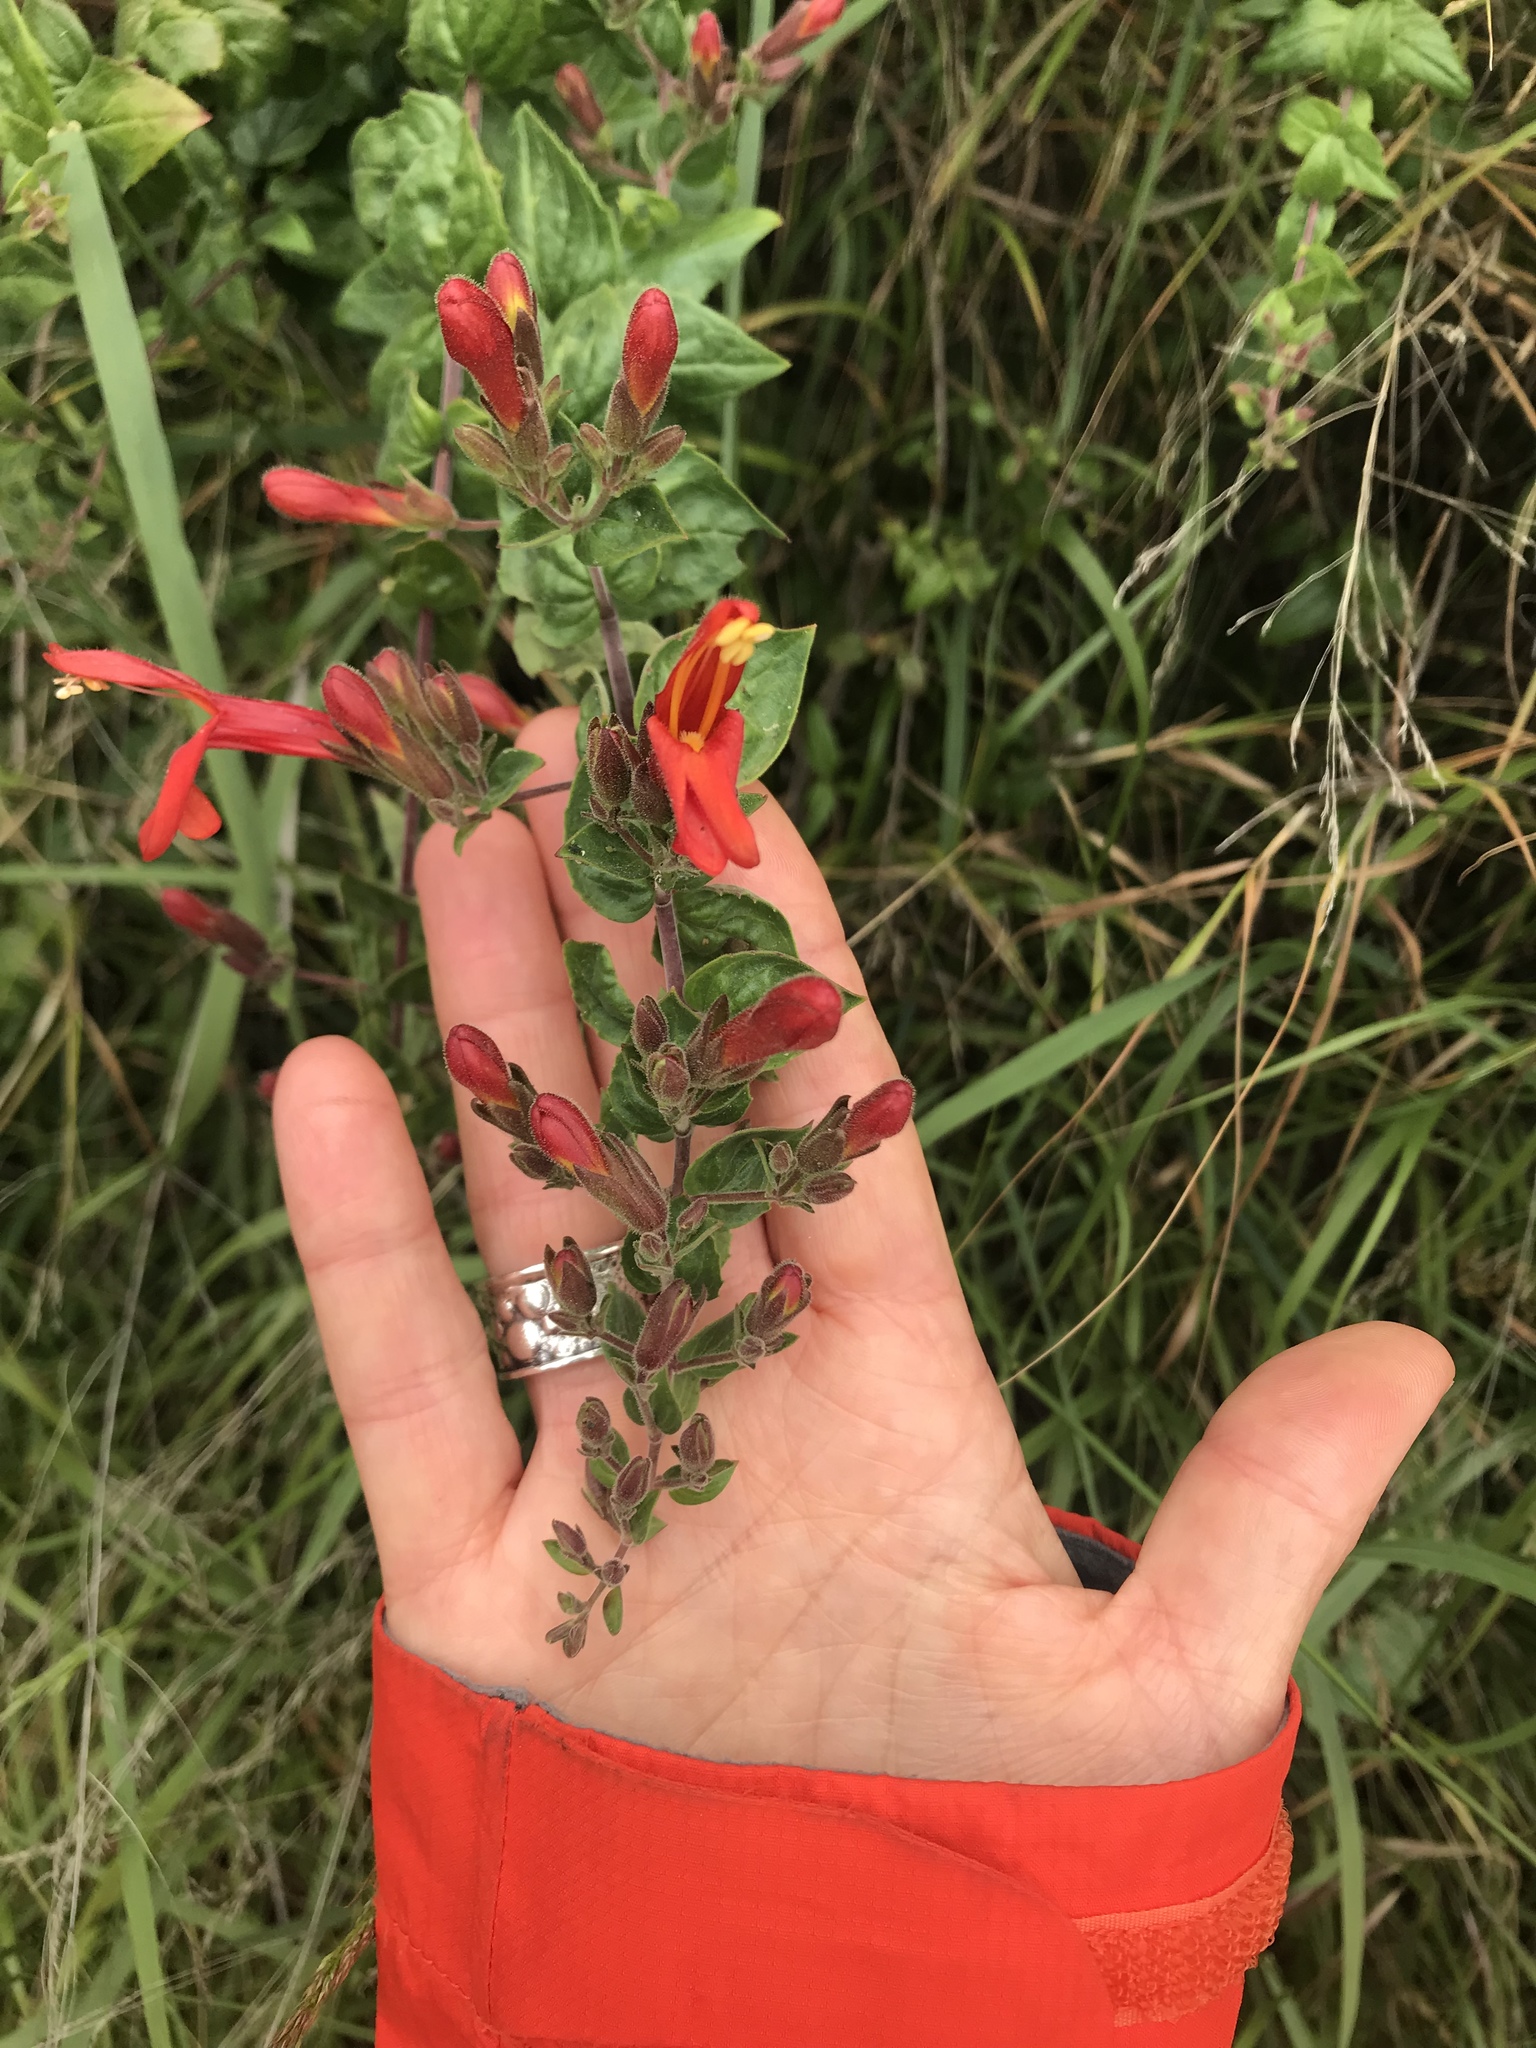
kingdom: Plantae
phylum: Tracheophyta
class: Magnoliopsida
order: Lamiales
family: Plantaginaceae
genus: Keckiella
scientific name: Keckiella cordifolia
